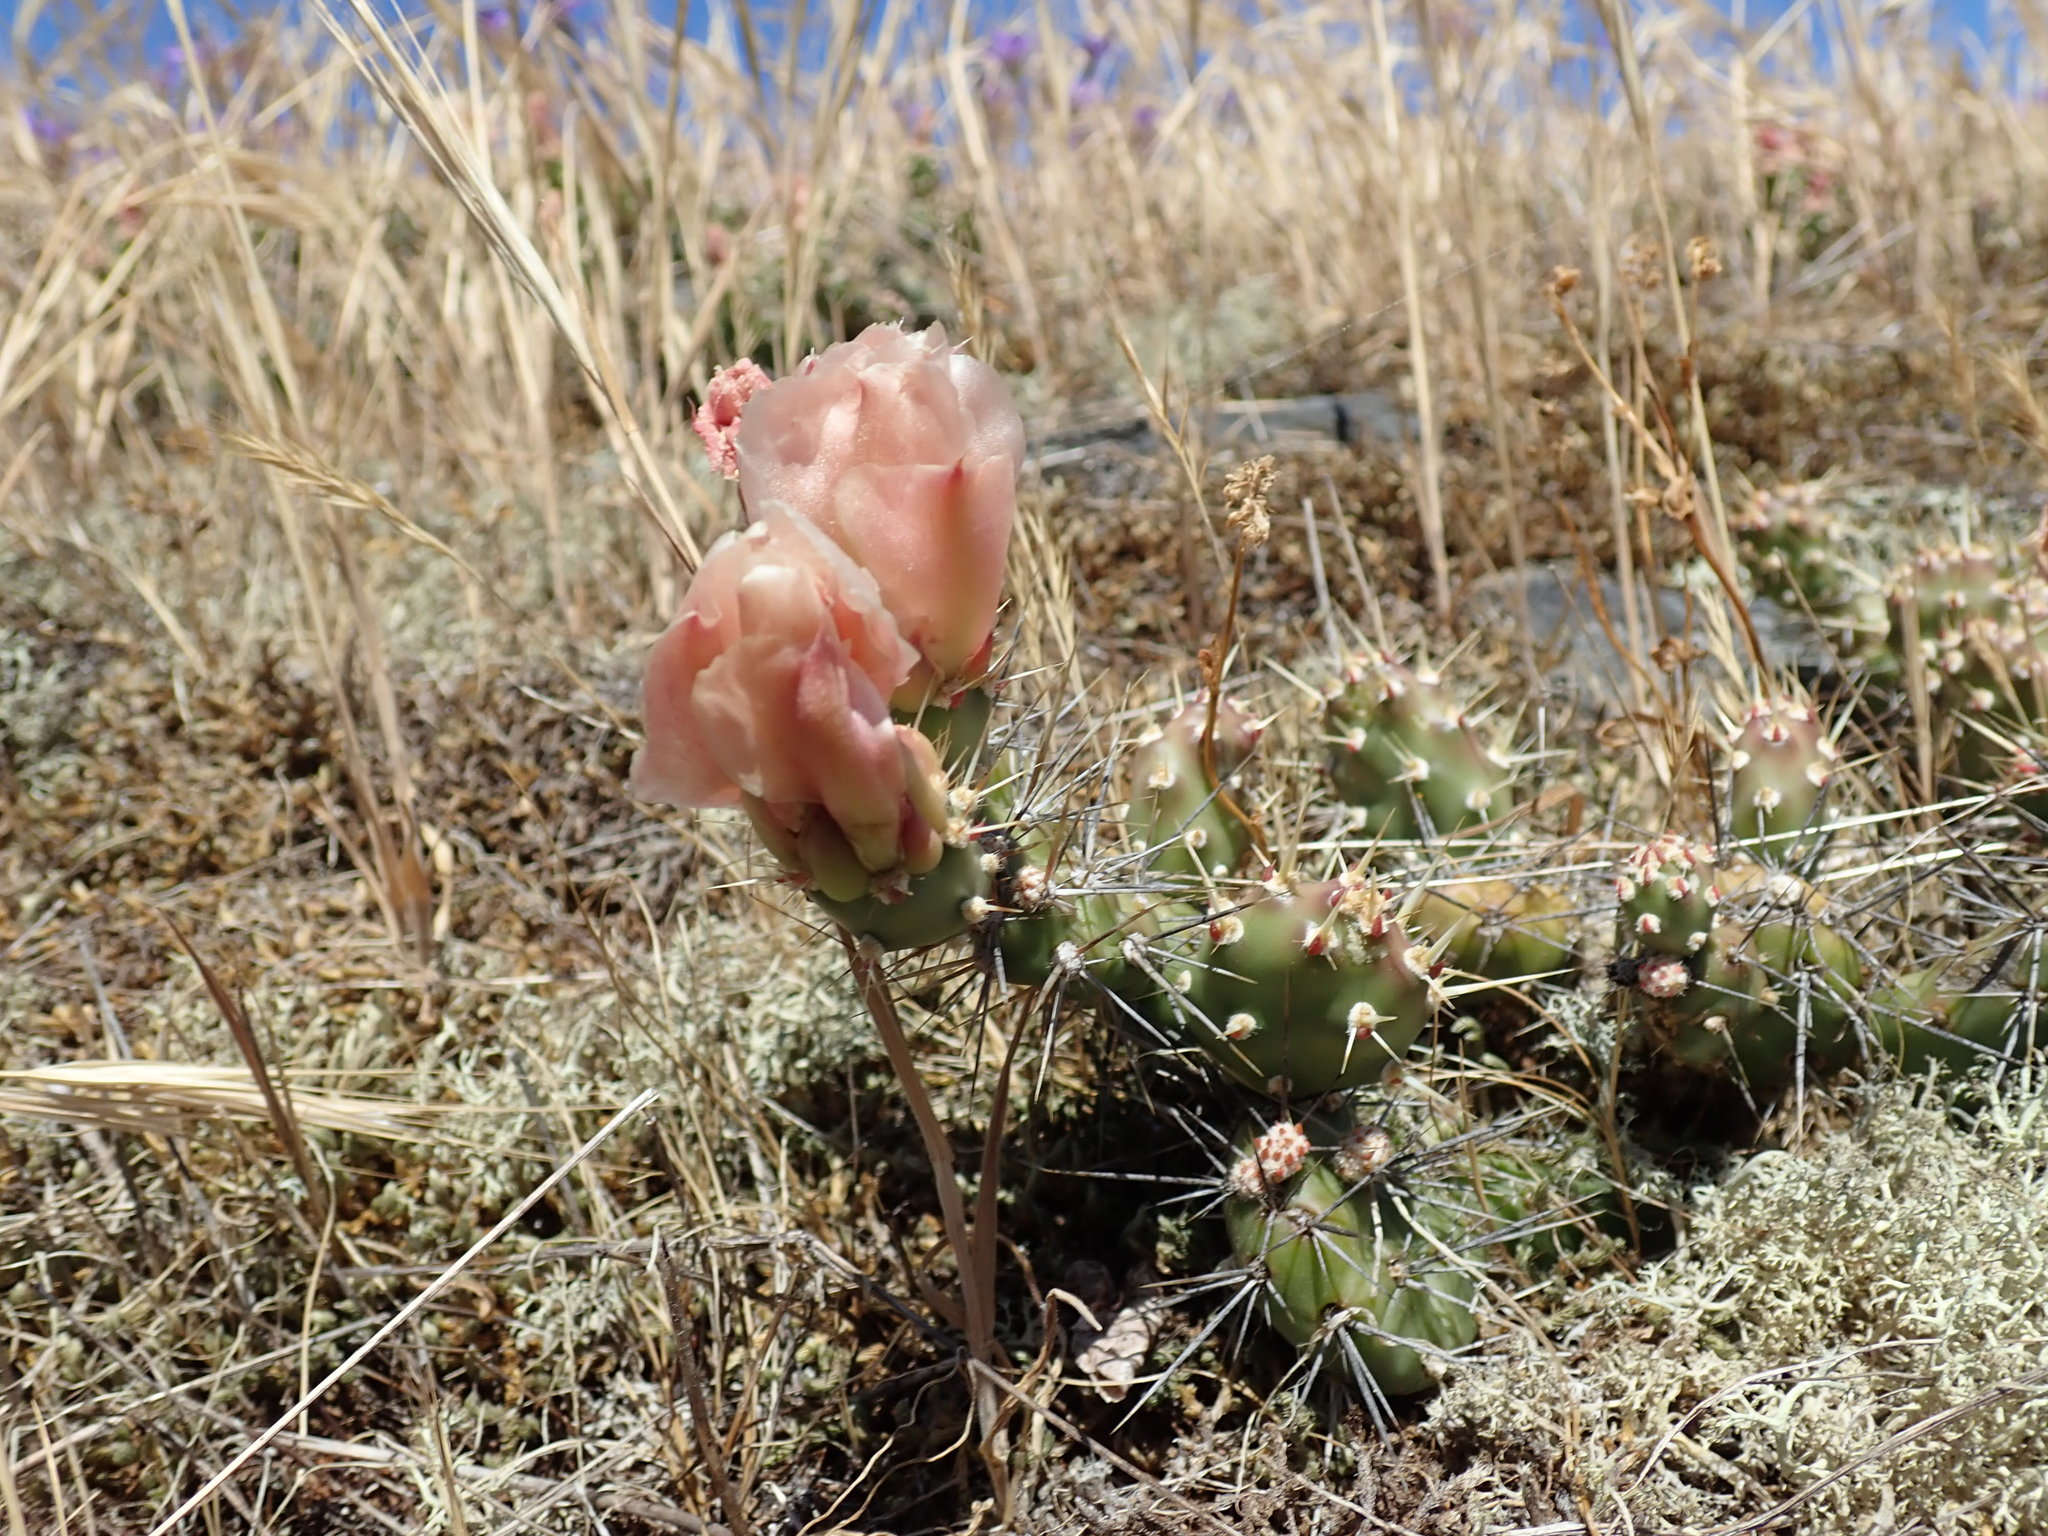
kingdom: Plantae
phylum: Tracheophyta
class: Magnoliopsida
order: Caryophyllales
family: Cactaceae
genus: Opuntia
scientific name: Opuntia fragilis
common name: Brittle cactus
